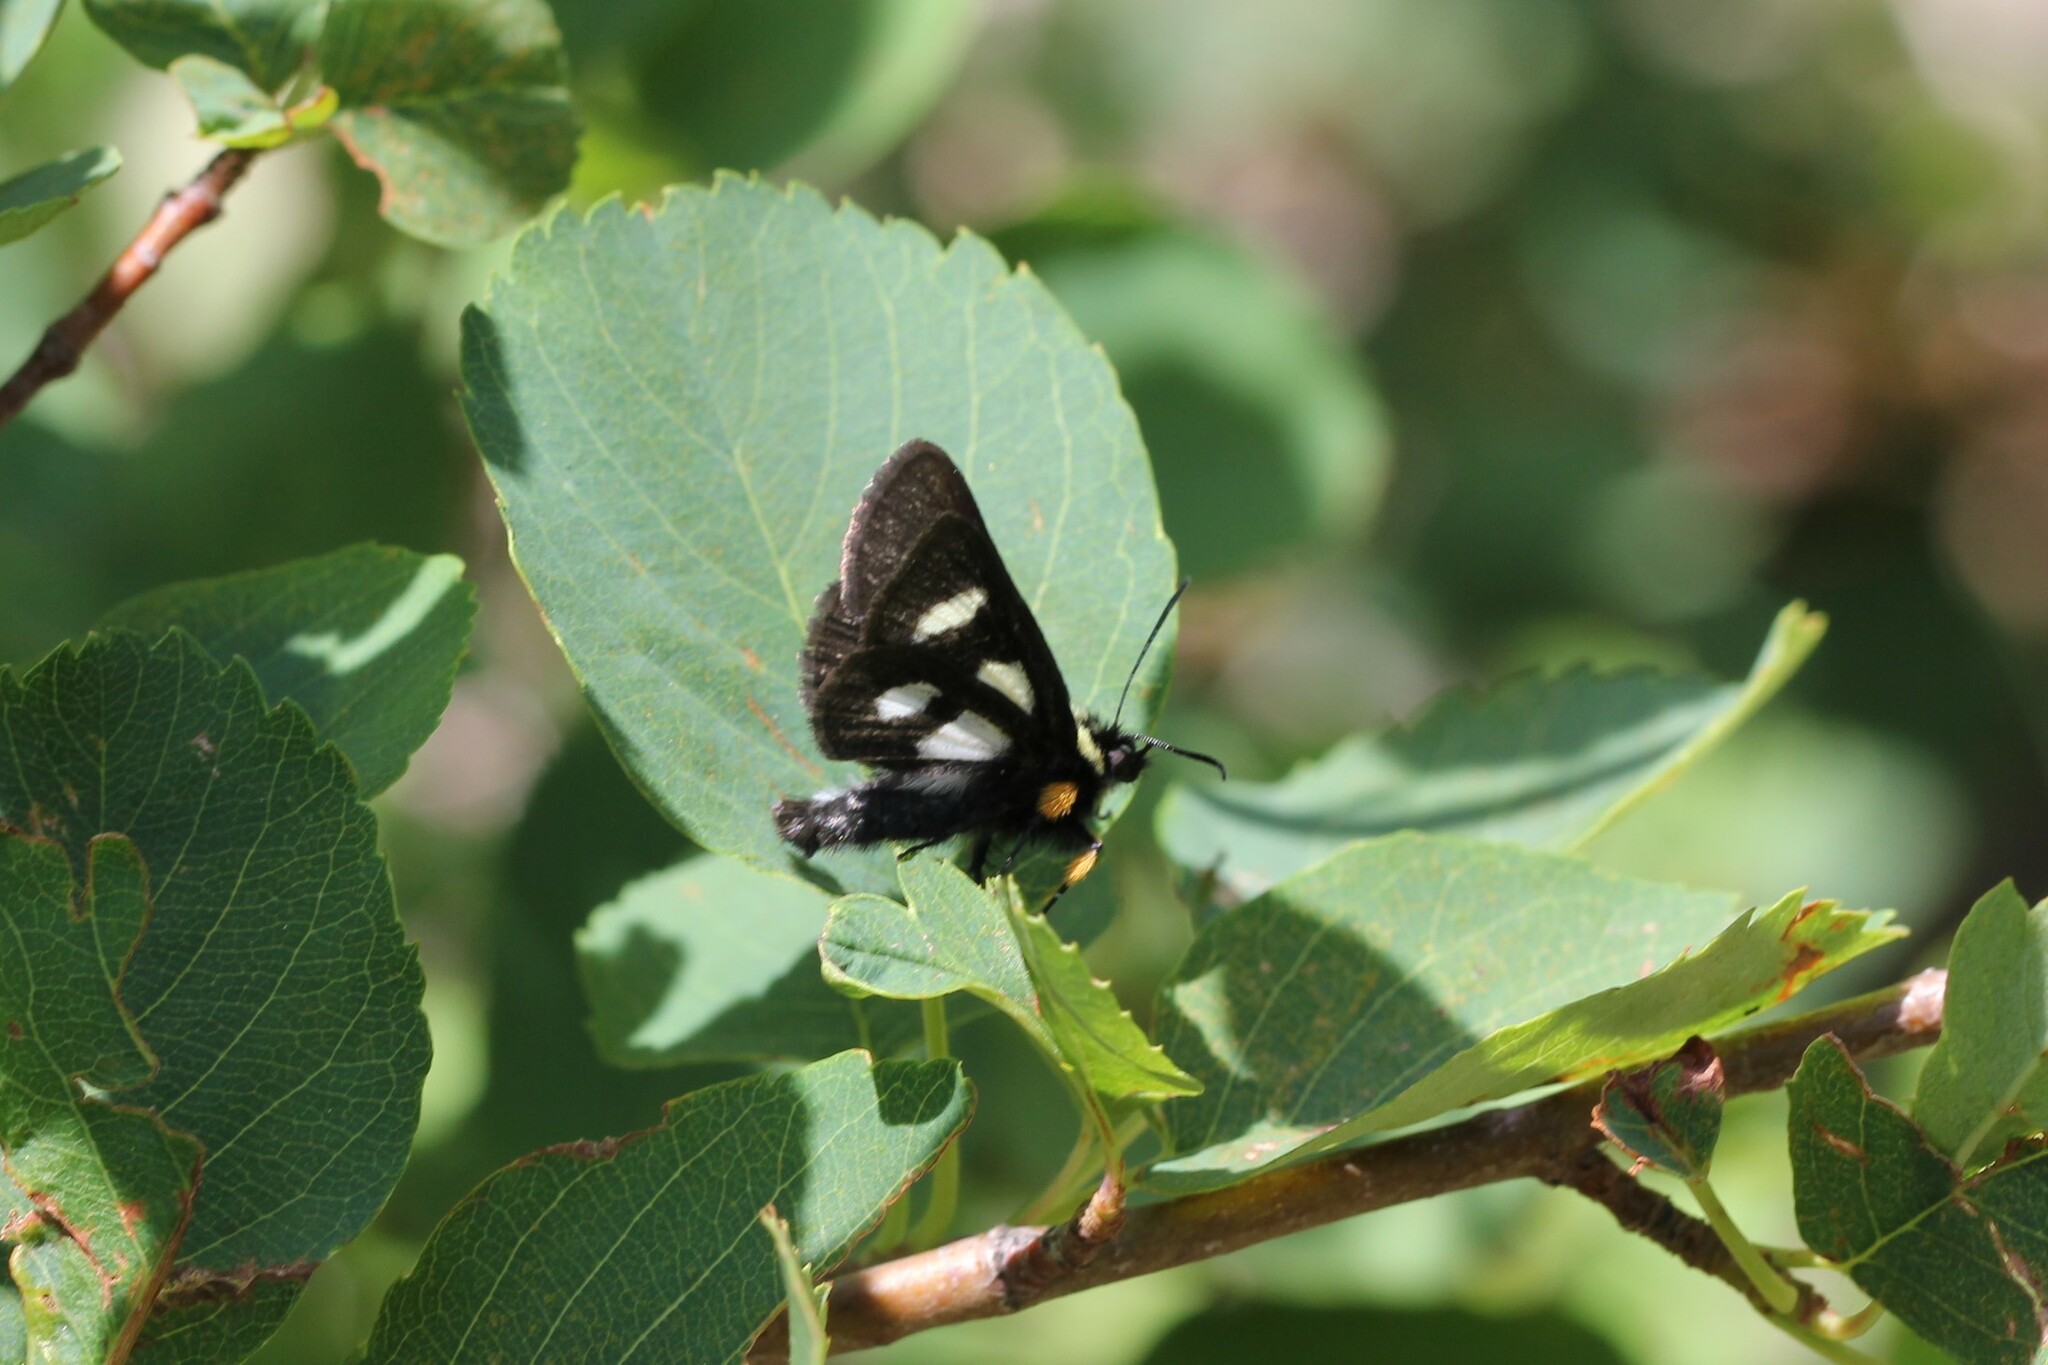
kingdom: Animalia
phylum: Arthropoda
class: Insecta
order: Lepidoptera
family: Noctuidae
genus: Alypia
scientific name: Alypia langtonii
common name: Fireweed caterpillar
